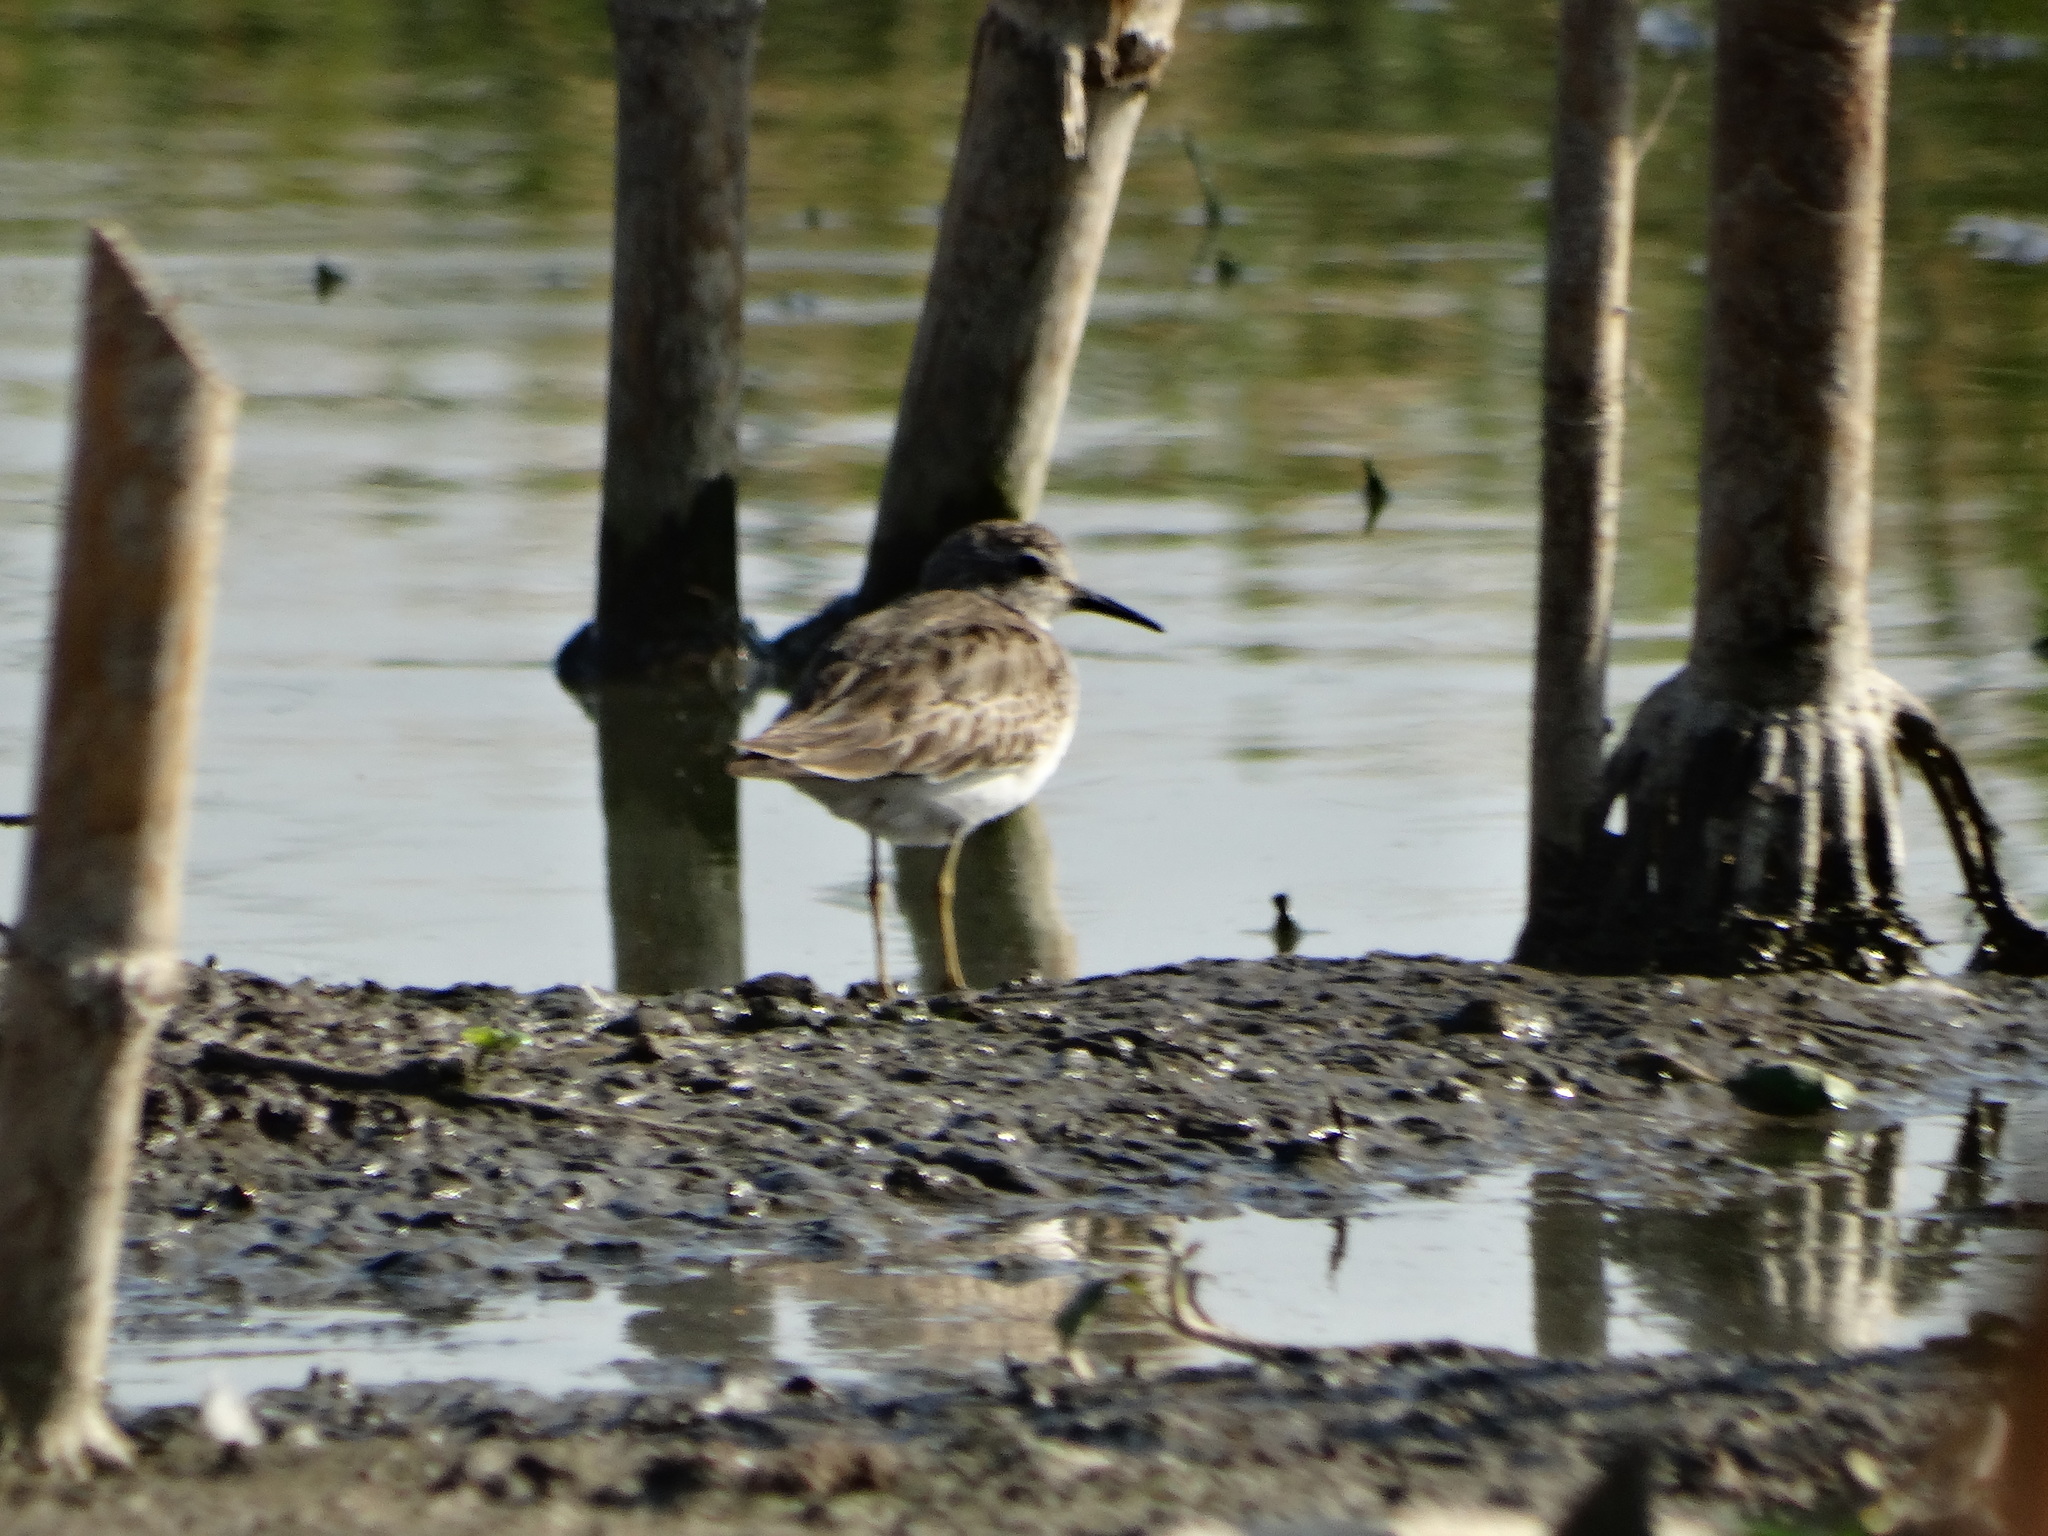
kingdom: Animalia
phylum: Chordata
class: Aves
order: Charadriiformes
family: Scolopacidae
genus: Calidris
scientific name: Calidris minutilla
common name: Least sandpiper
